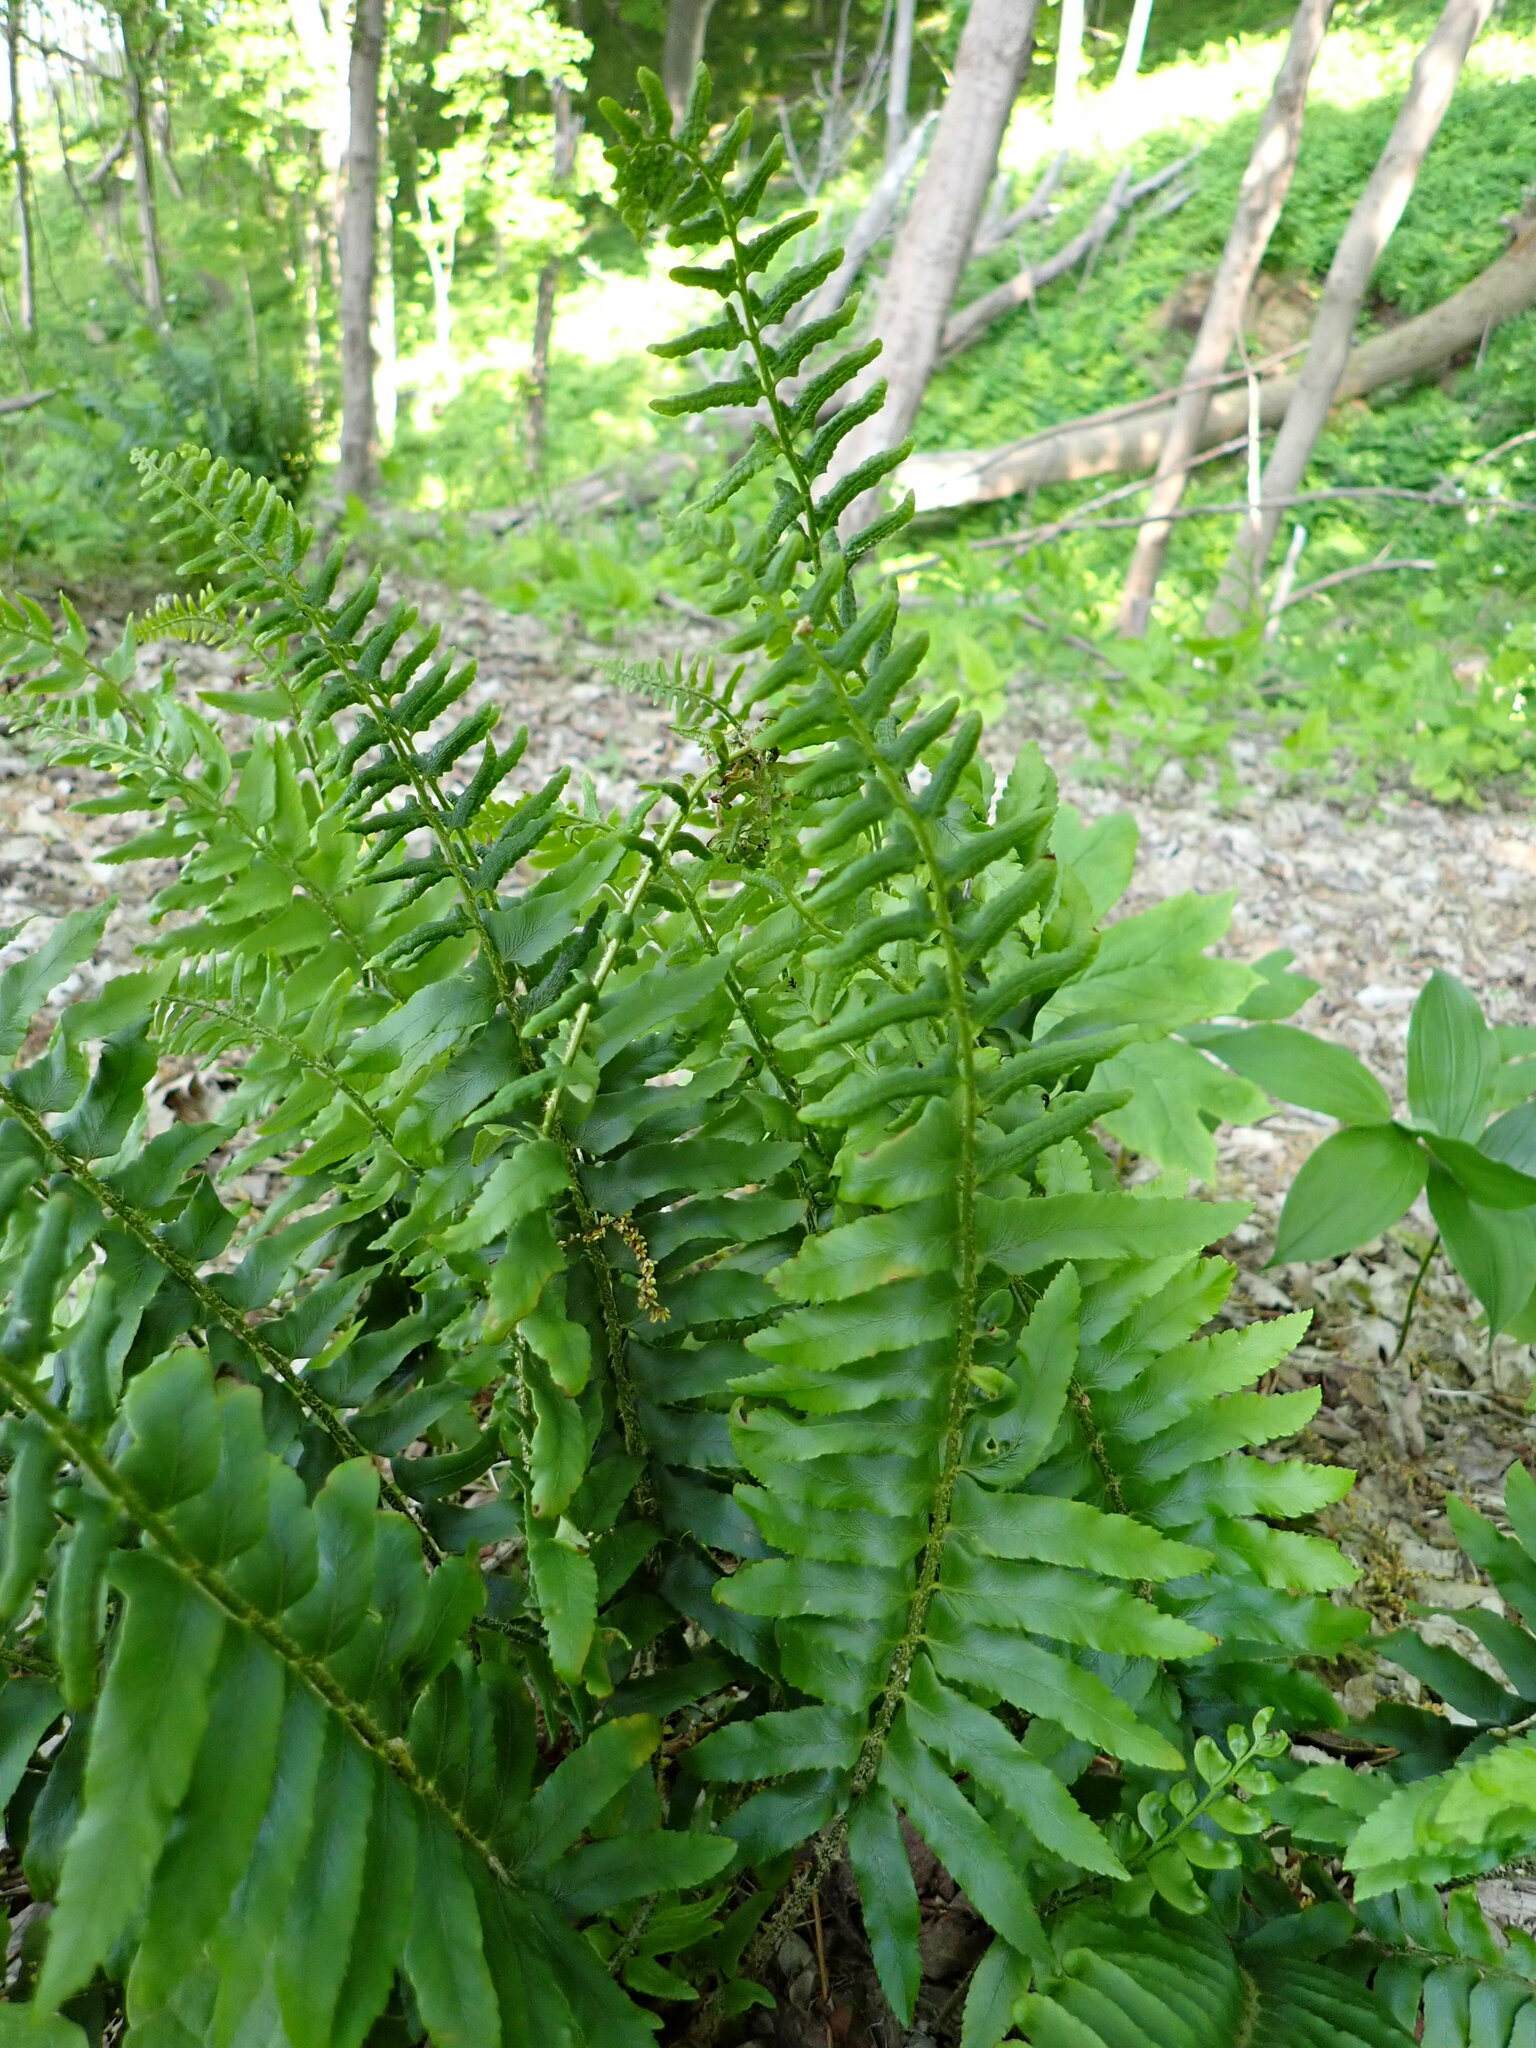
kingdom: Plantae
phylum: Tracheophyta
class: Polypodiopsida
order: Polypodiales
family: Dryopteridaceae
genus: Polystichum
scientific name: Polystichum acrostichoides
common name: Christmas fern
